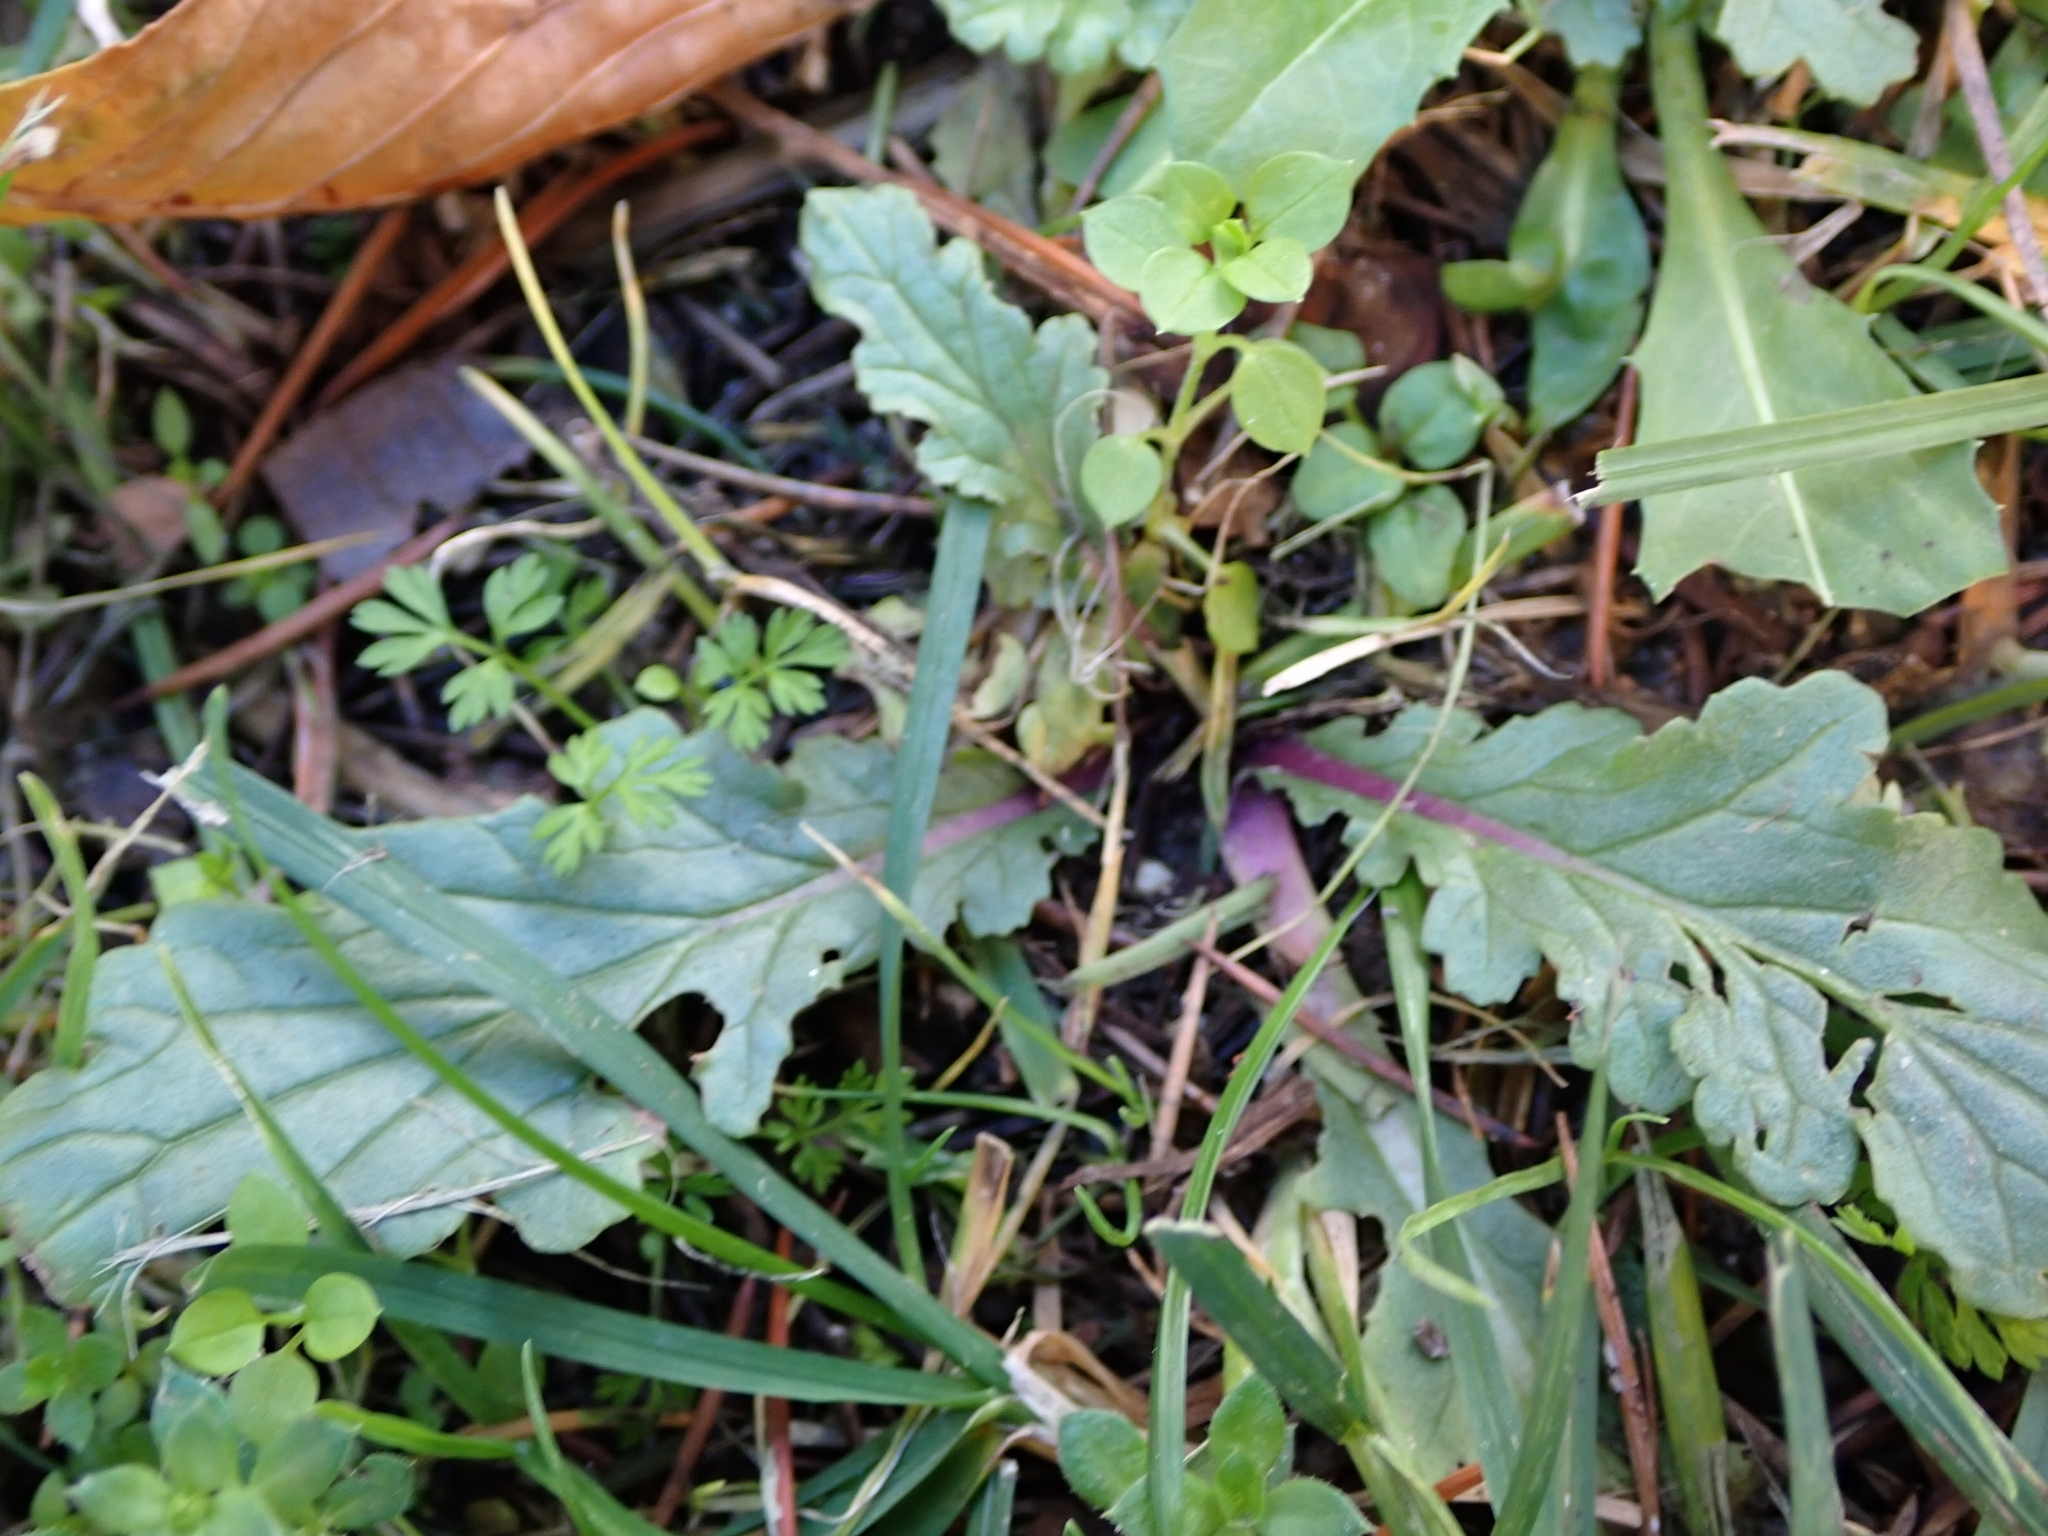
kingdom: Plantae
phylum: Tracheophyta
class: Magnoliopsida
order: Asterales
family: Asteraceae
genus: Jacobaea
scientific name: Jacobaea vulgaris
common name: Stinking willie
